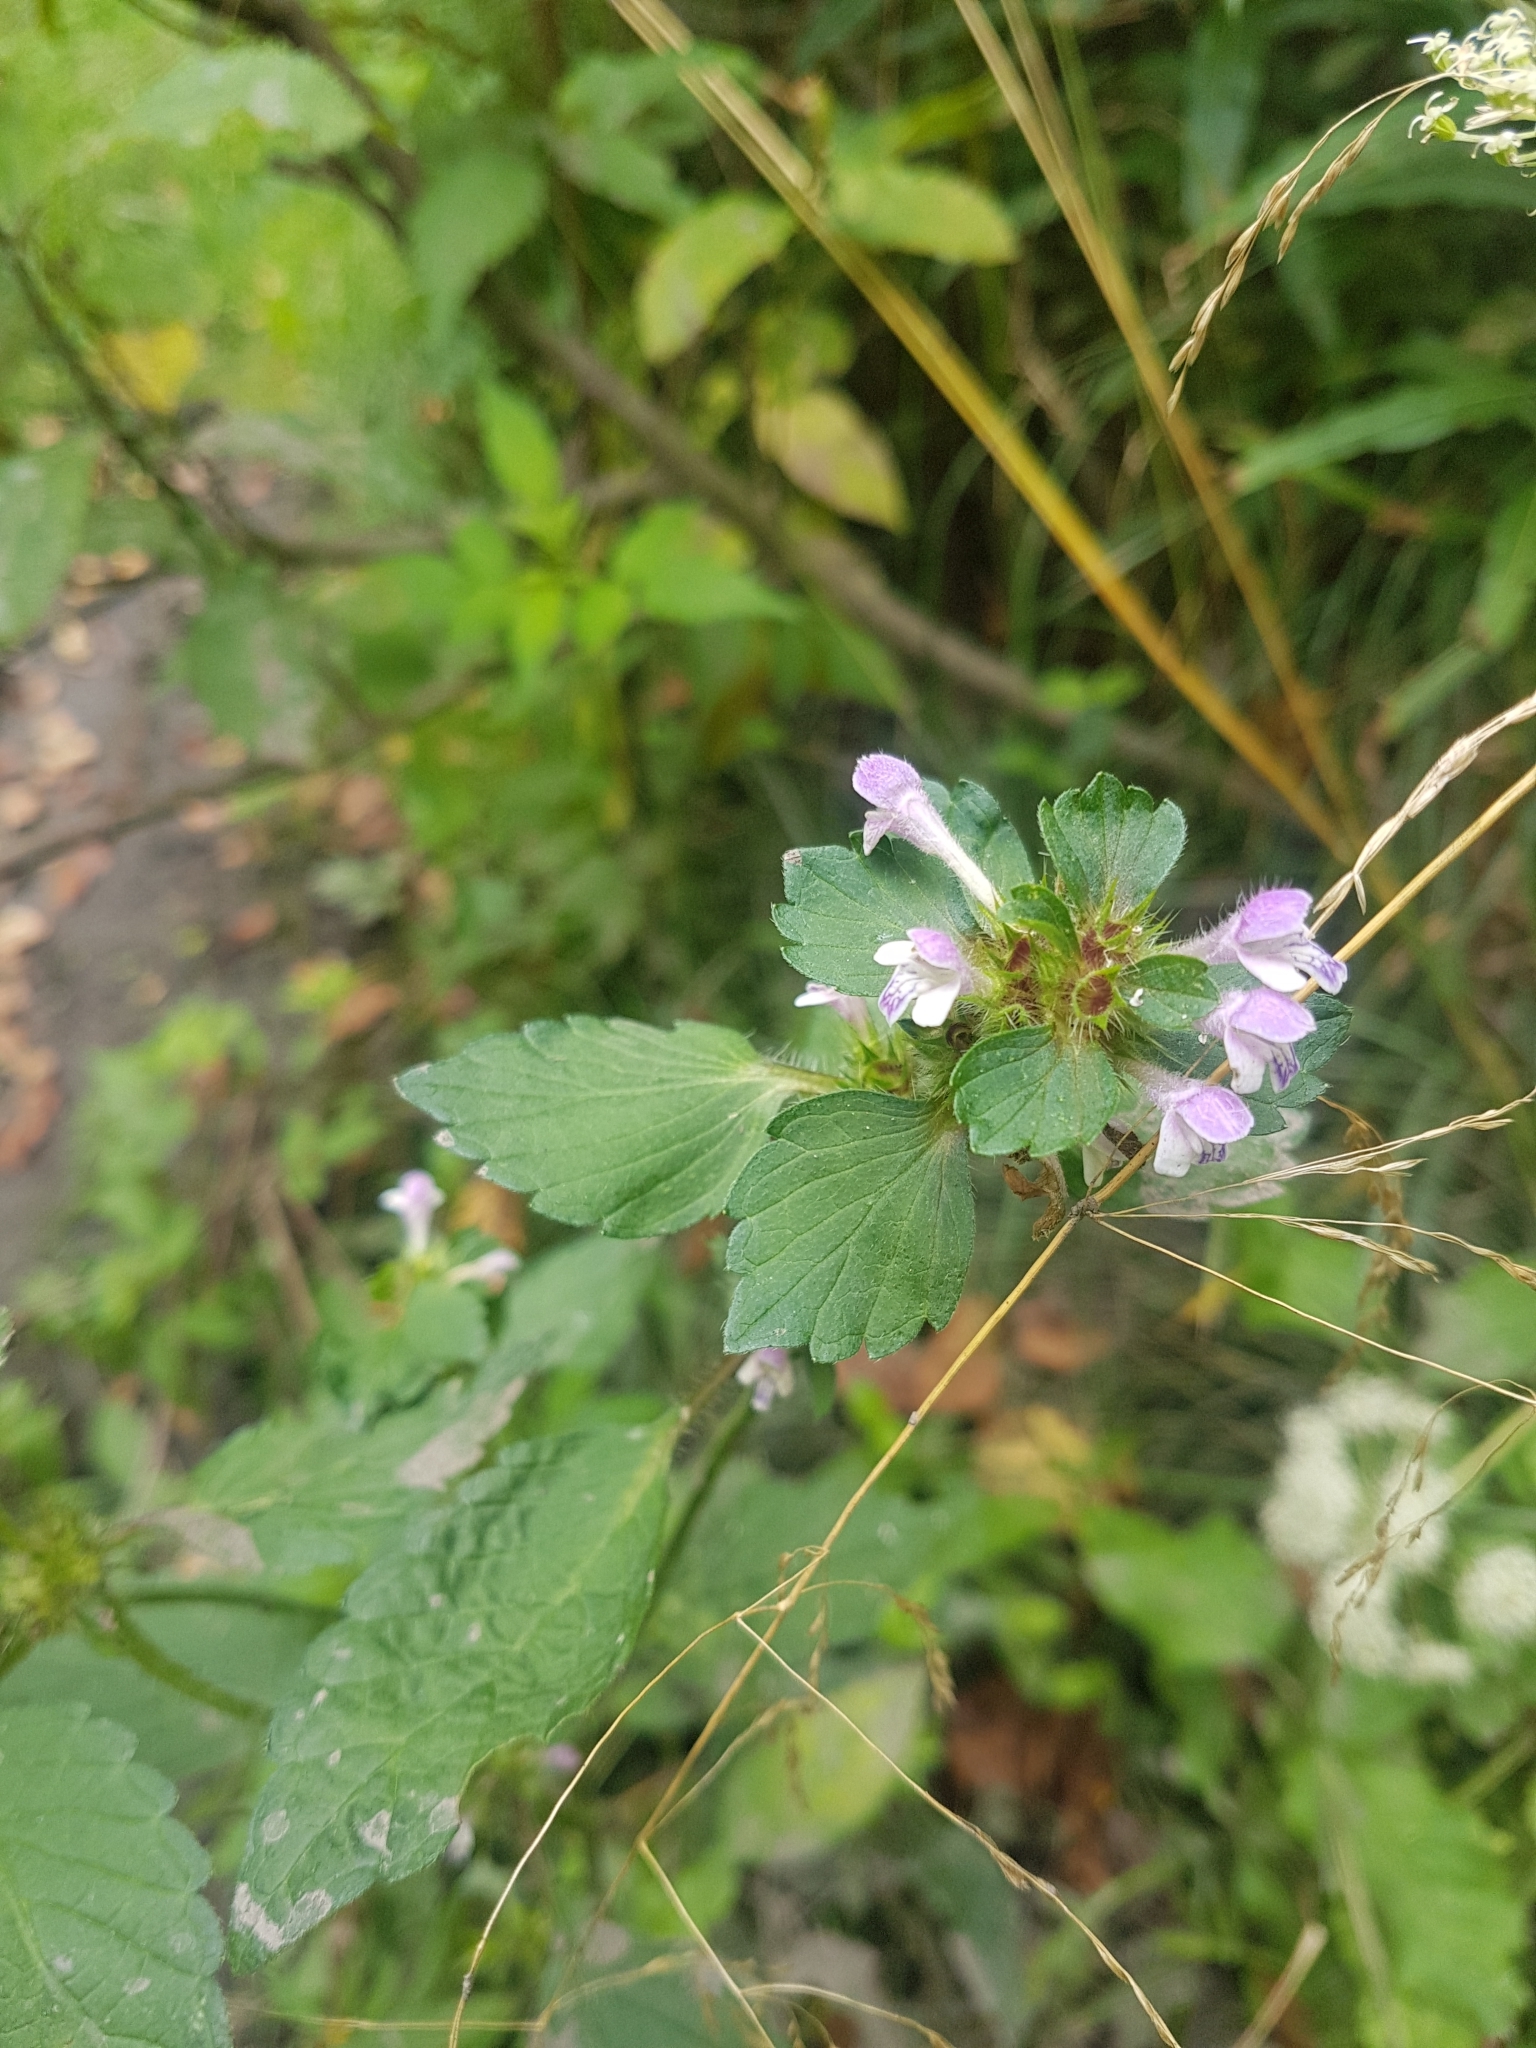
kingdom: Plantae
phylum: Tracheophyta
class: Magnoliopsida
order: Lamiales
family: Lamiaceae
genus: Galeopsis
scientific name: Galeopsis bifida
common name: Bifid hemp-nettle
